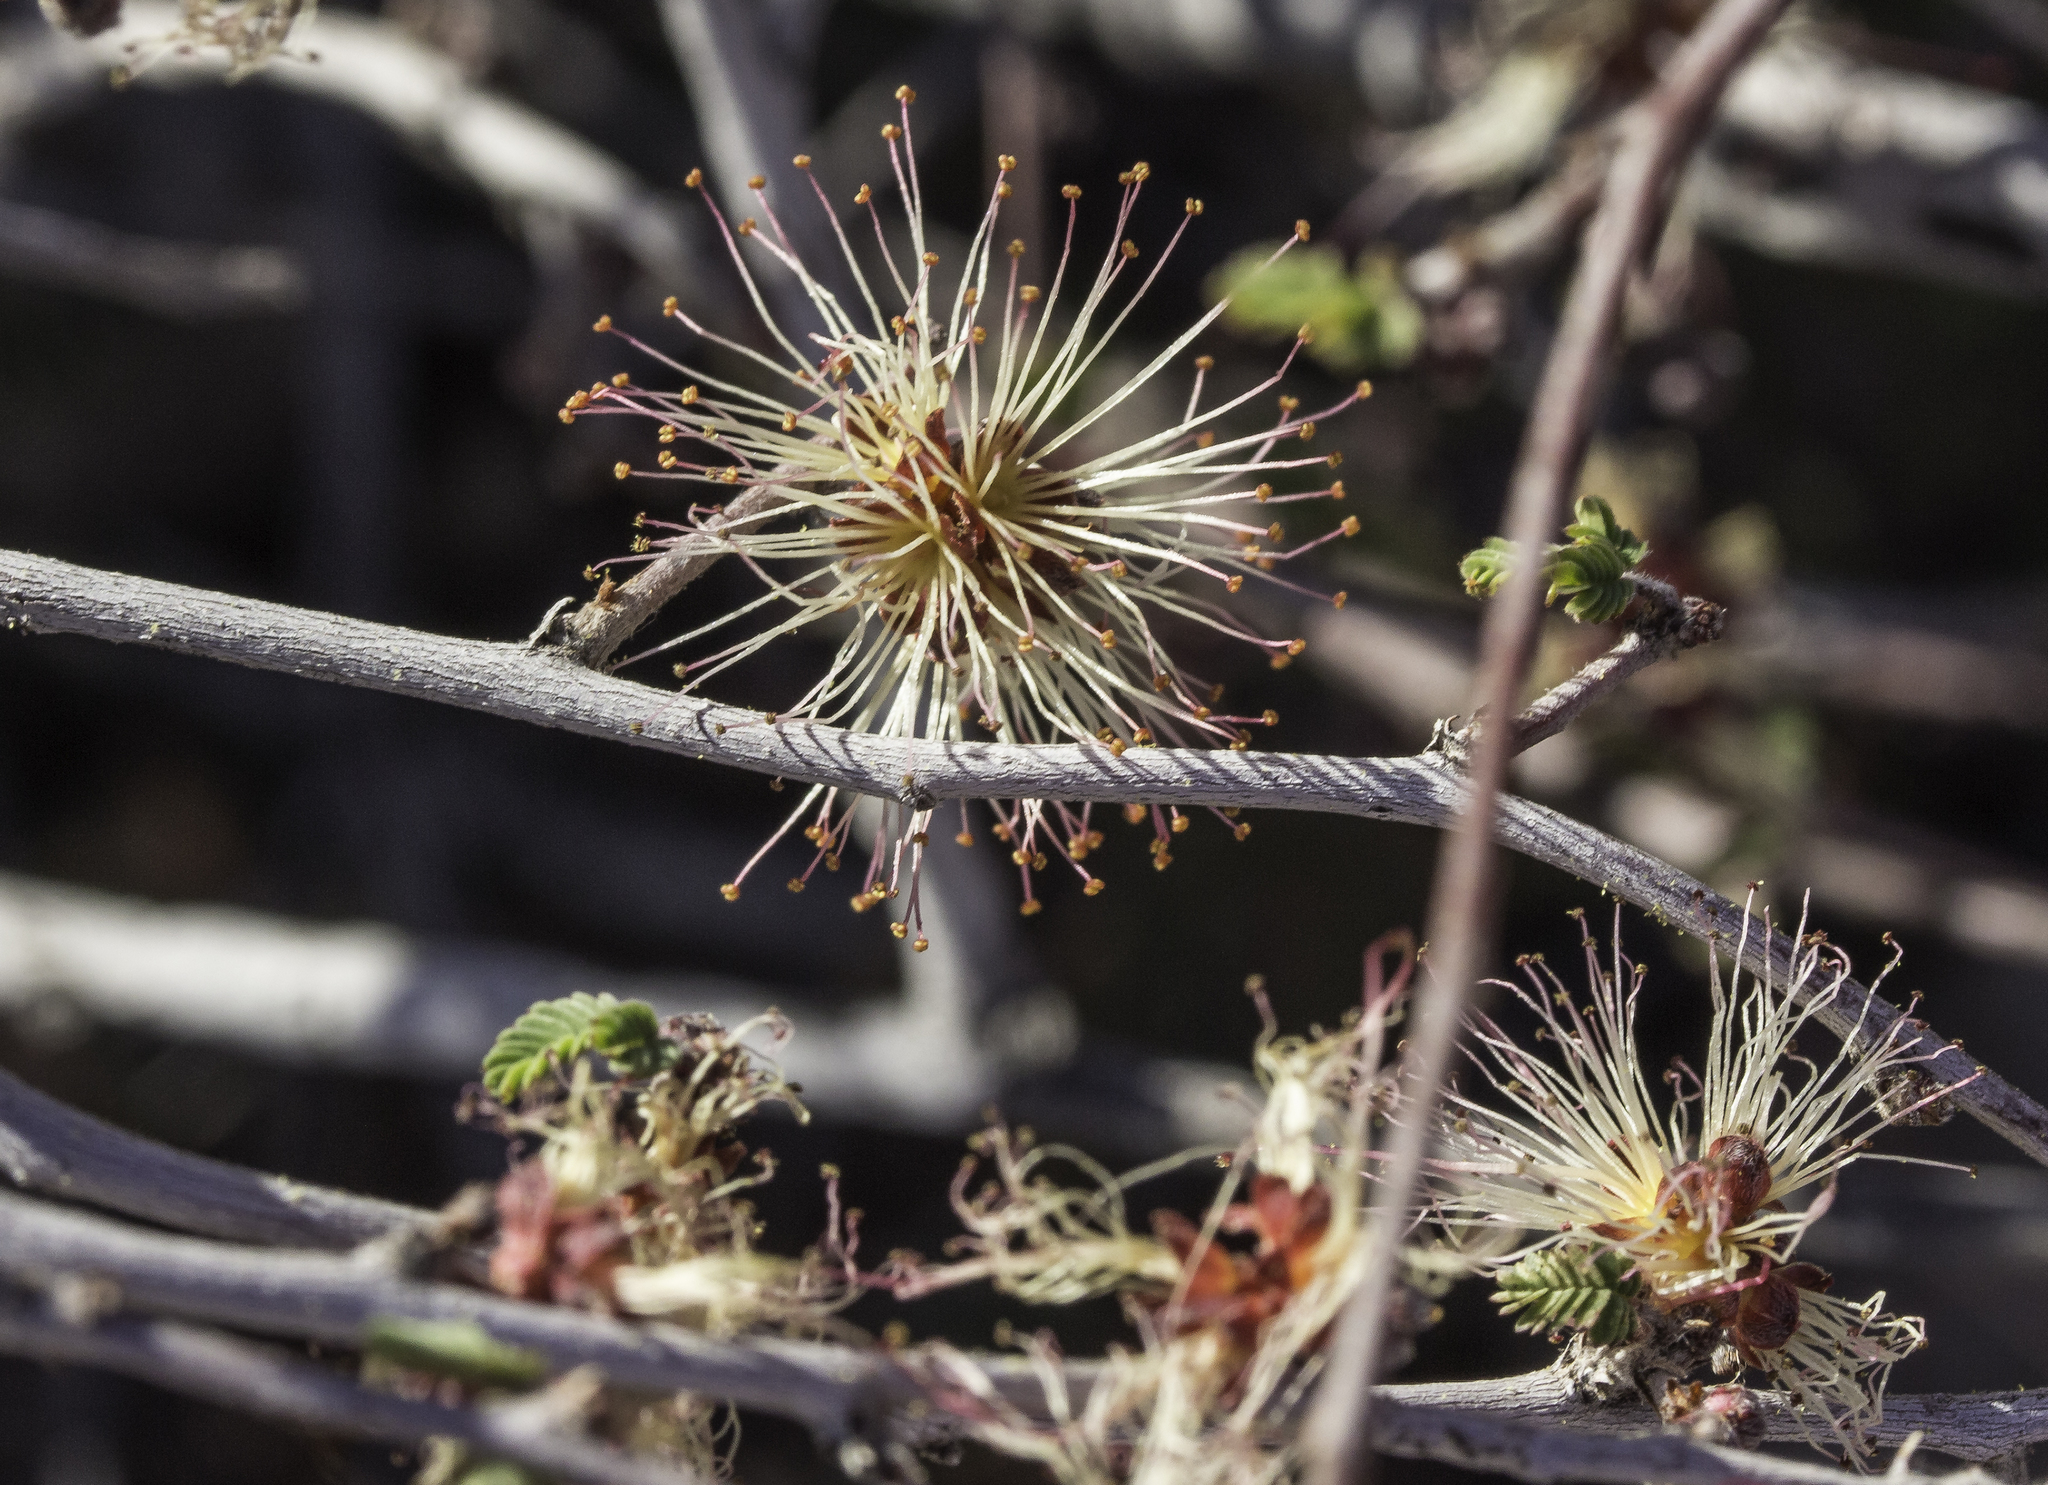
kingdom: Plantae
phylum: Tracheophyta
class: Magnoliopsida
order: Fabales
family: Fabaceae
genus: Calliandra
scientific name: Calliandra eriophylla
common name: Fairy-duster
